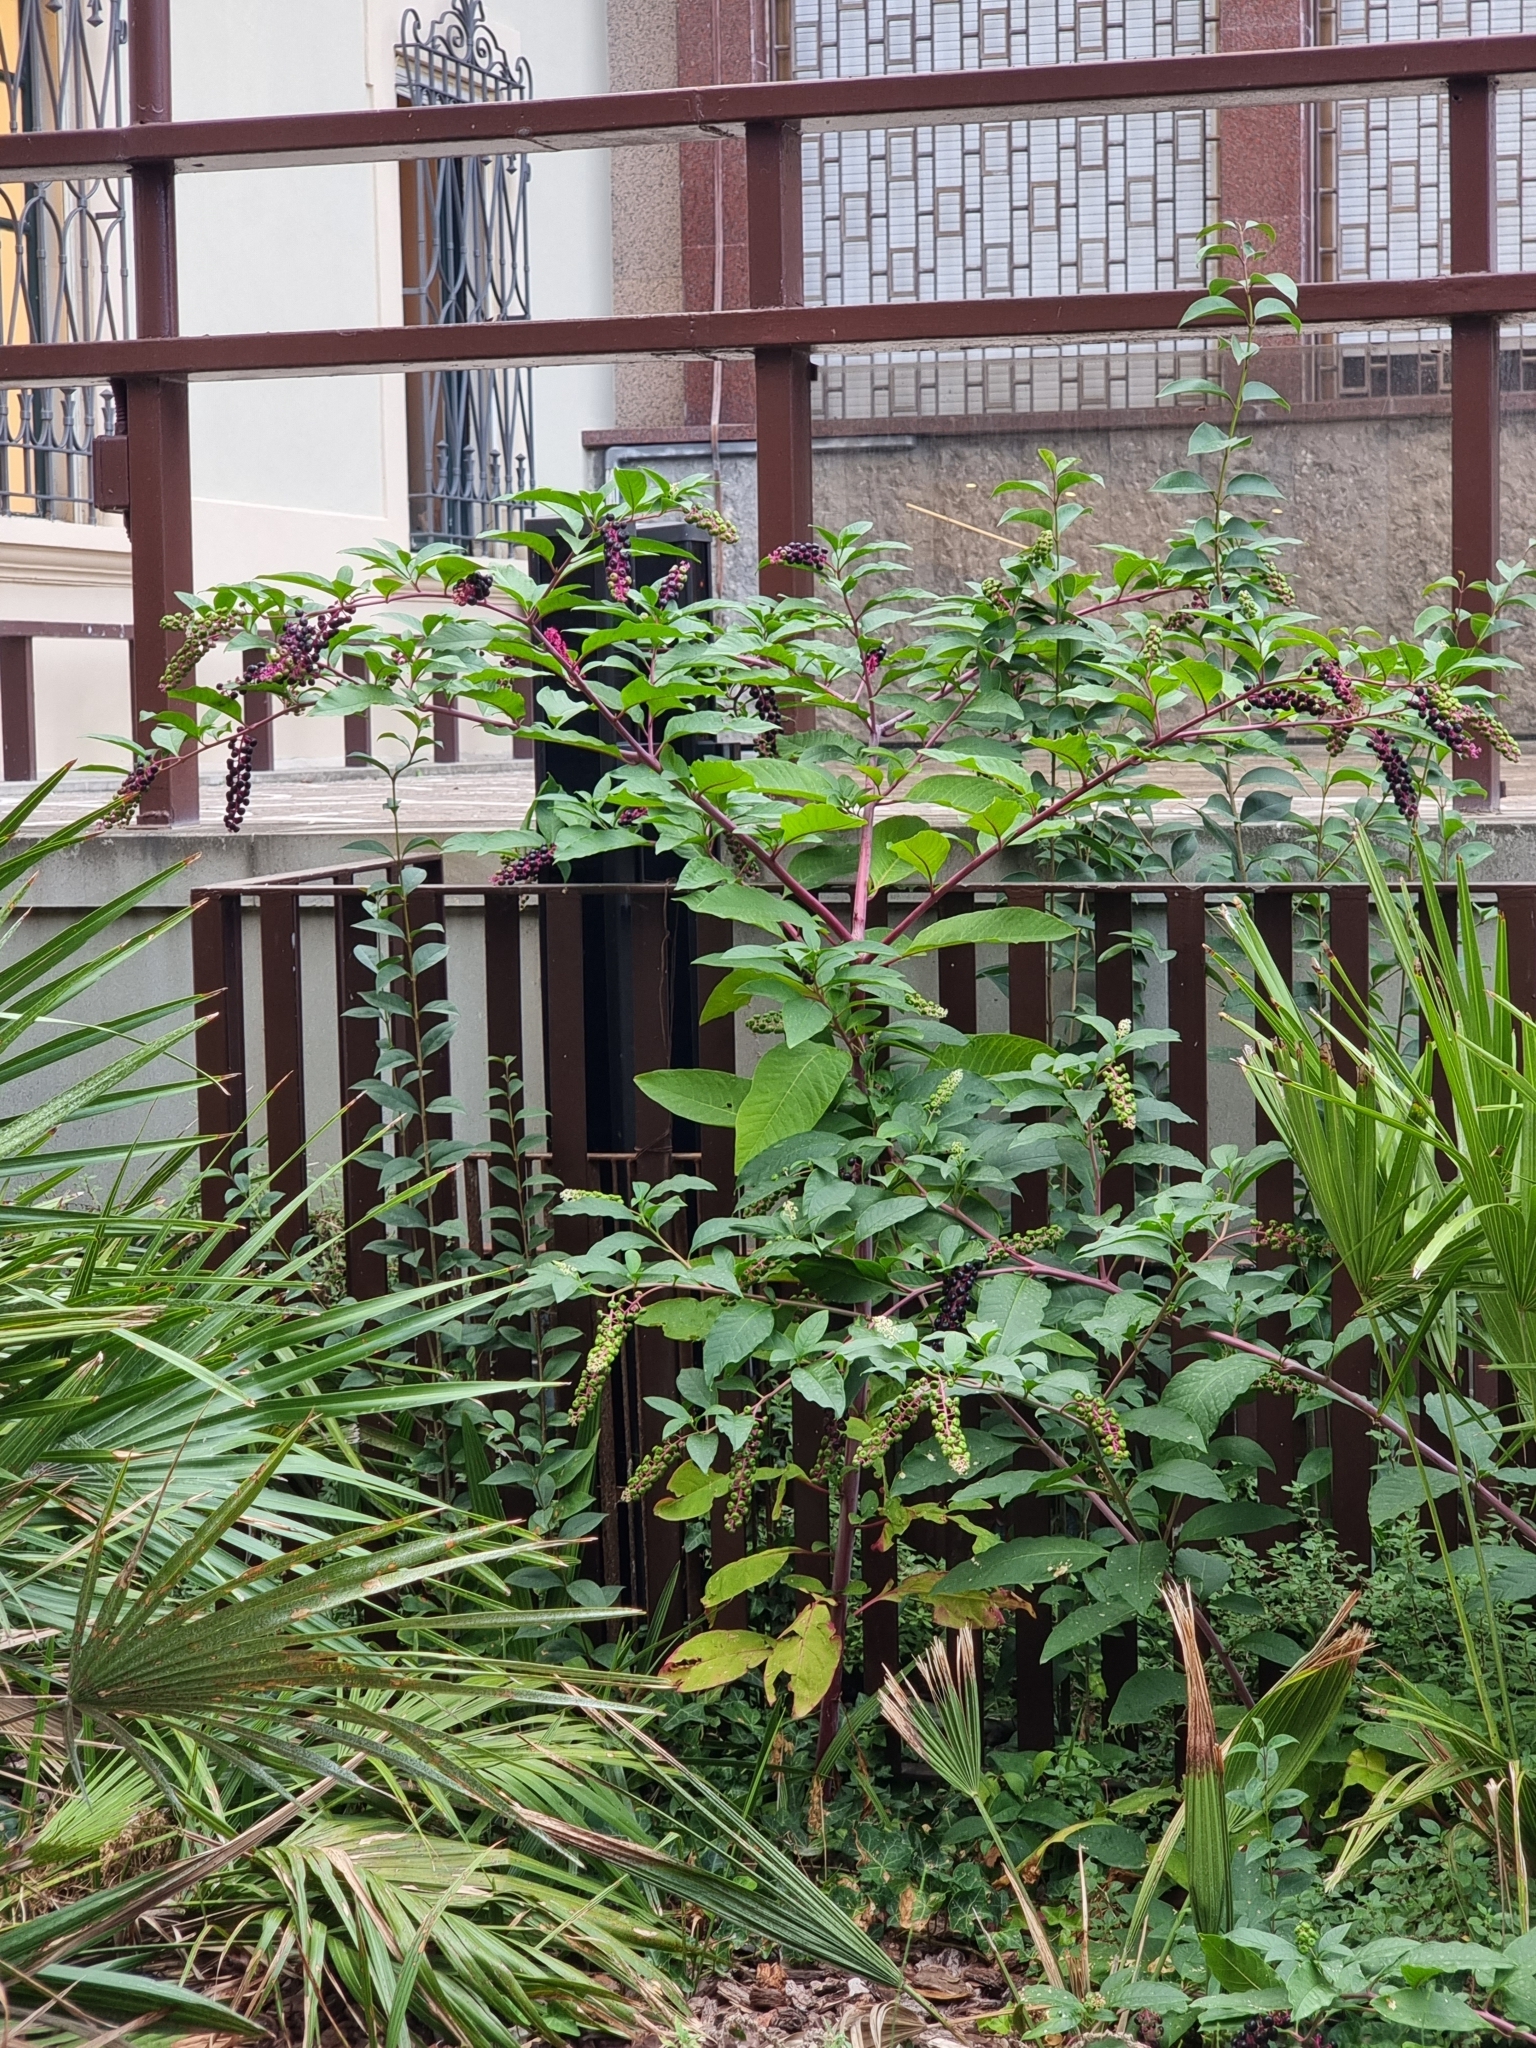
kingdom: Plantae
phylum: Tracheophyta
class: Magnoliopsida
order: Caryophyllales
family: Phytolaccaceae
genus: Phytolacca
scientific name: Phytolacca americana
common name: American pokeweed
